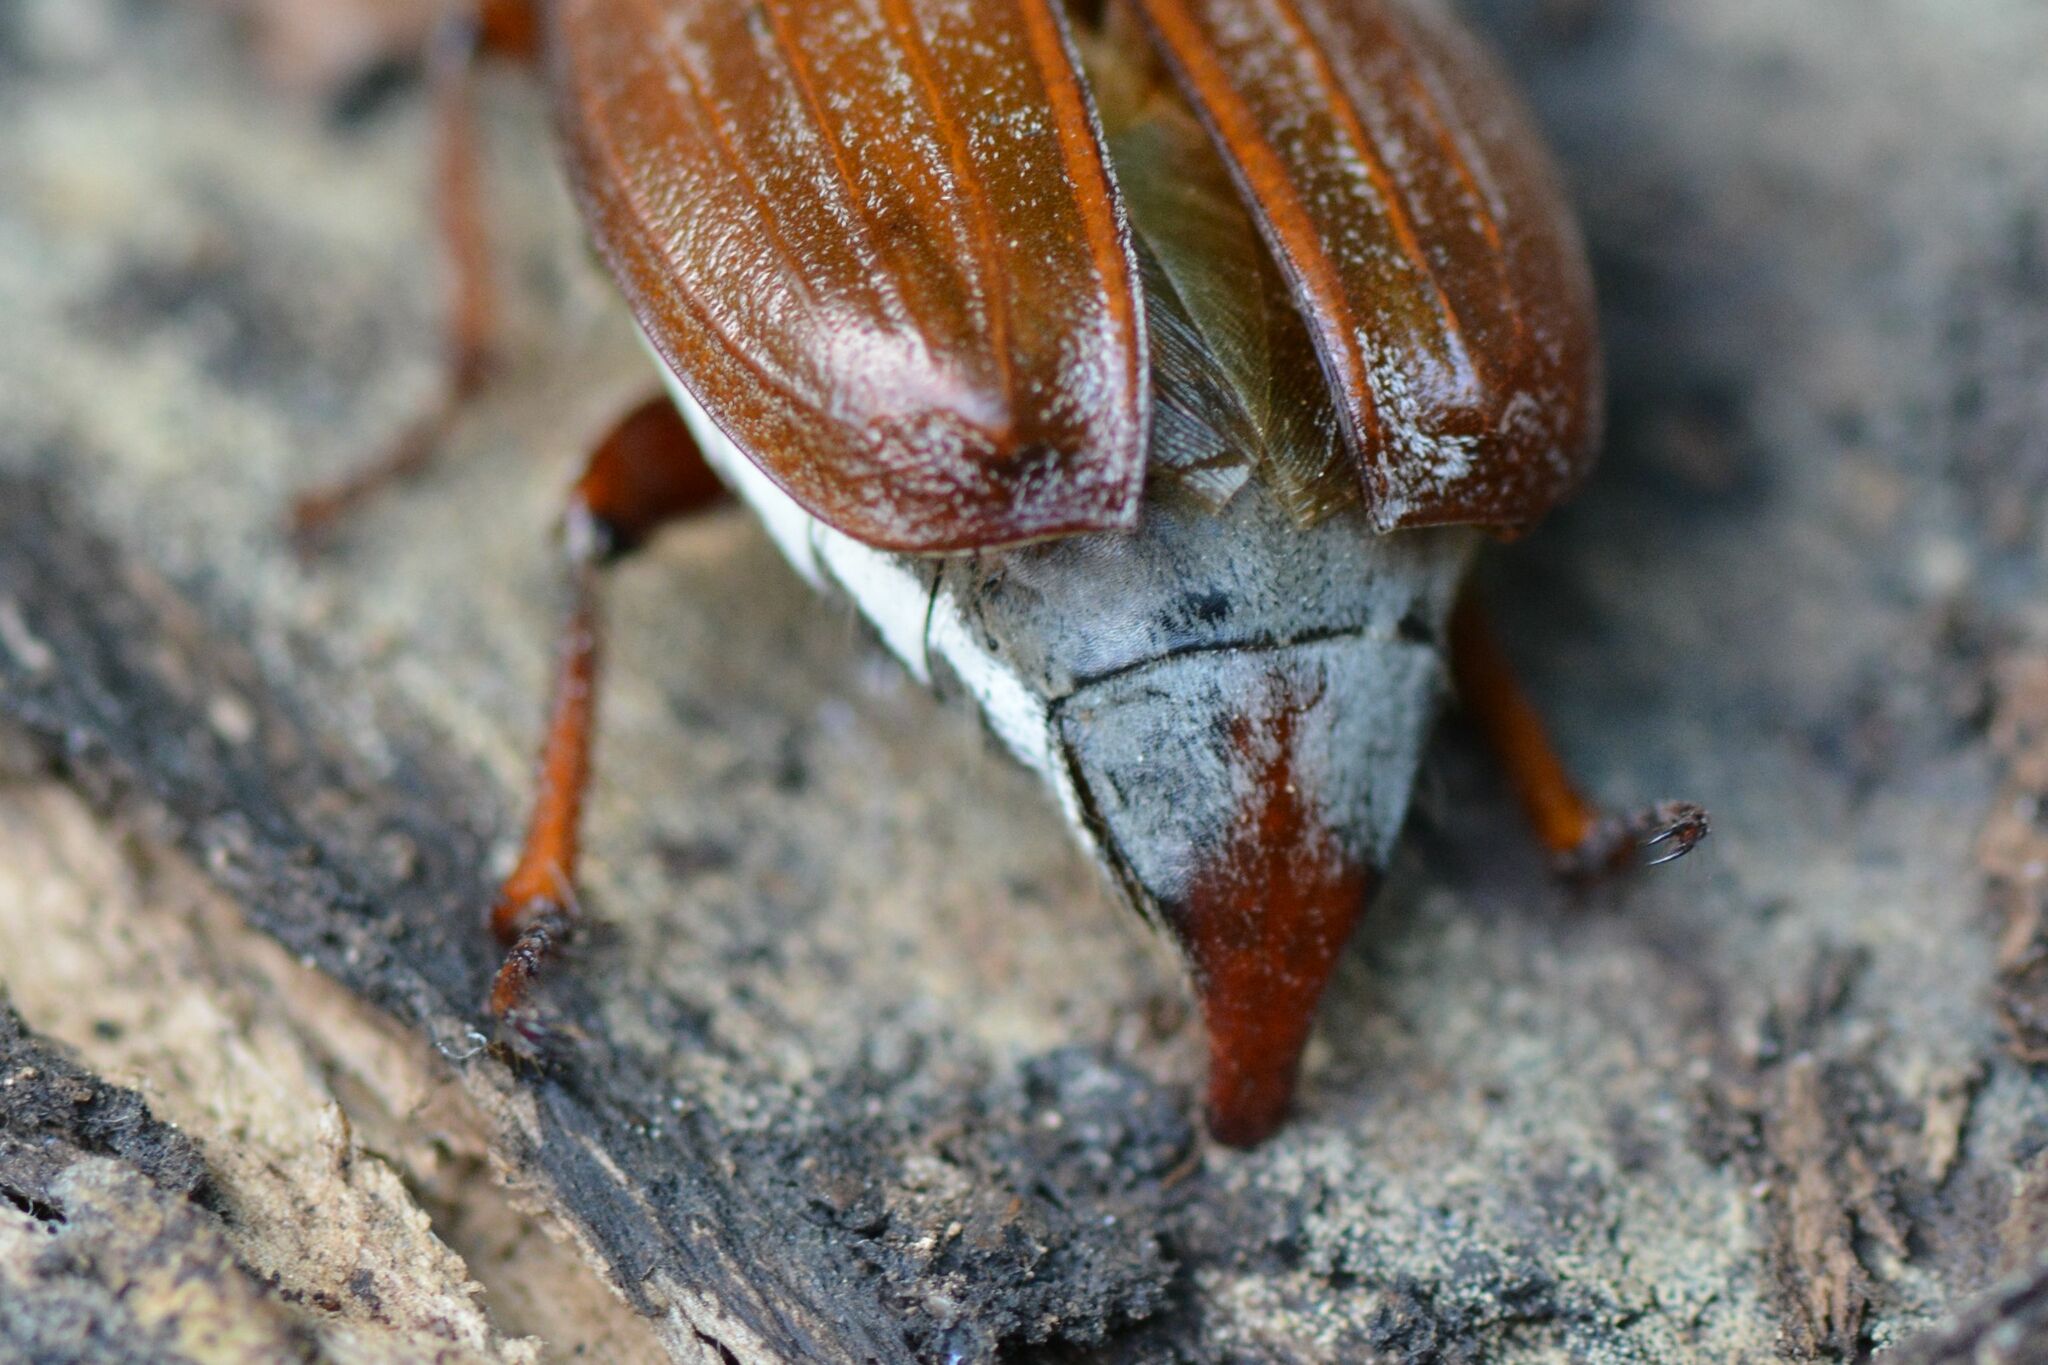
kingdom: Animalia
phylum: Arthropoda
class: Insecta
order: Coleoptera
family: Scarabaeidae
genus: Melolontha
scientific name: Melolontha melolontha
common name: Cockchafer maybeetle
